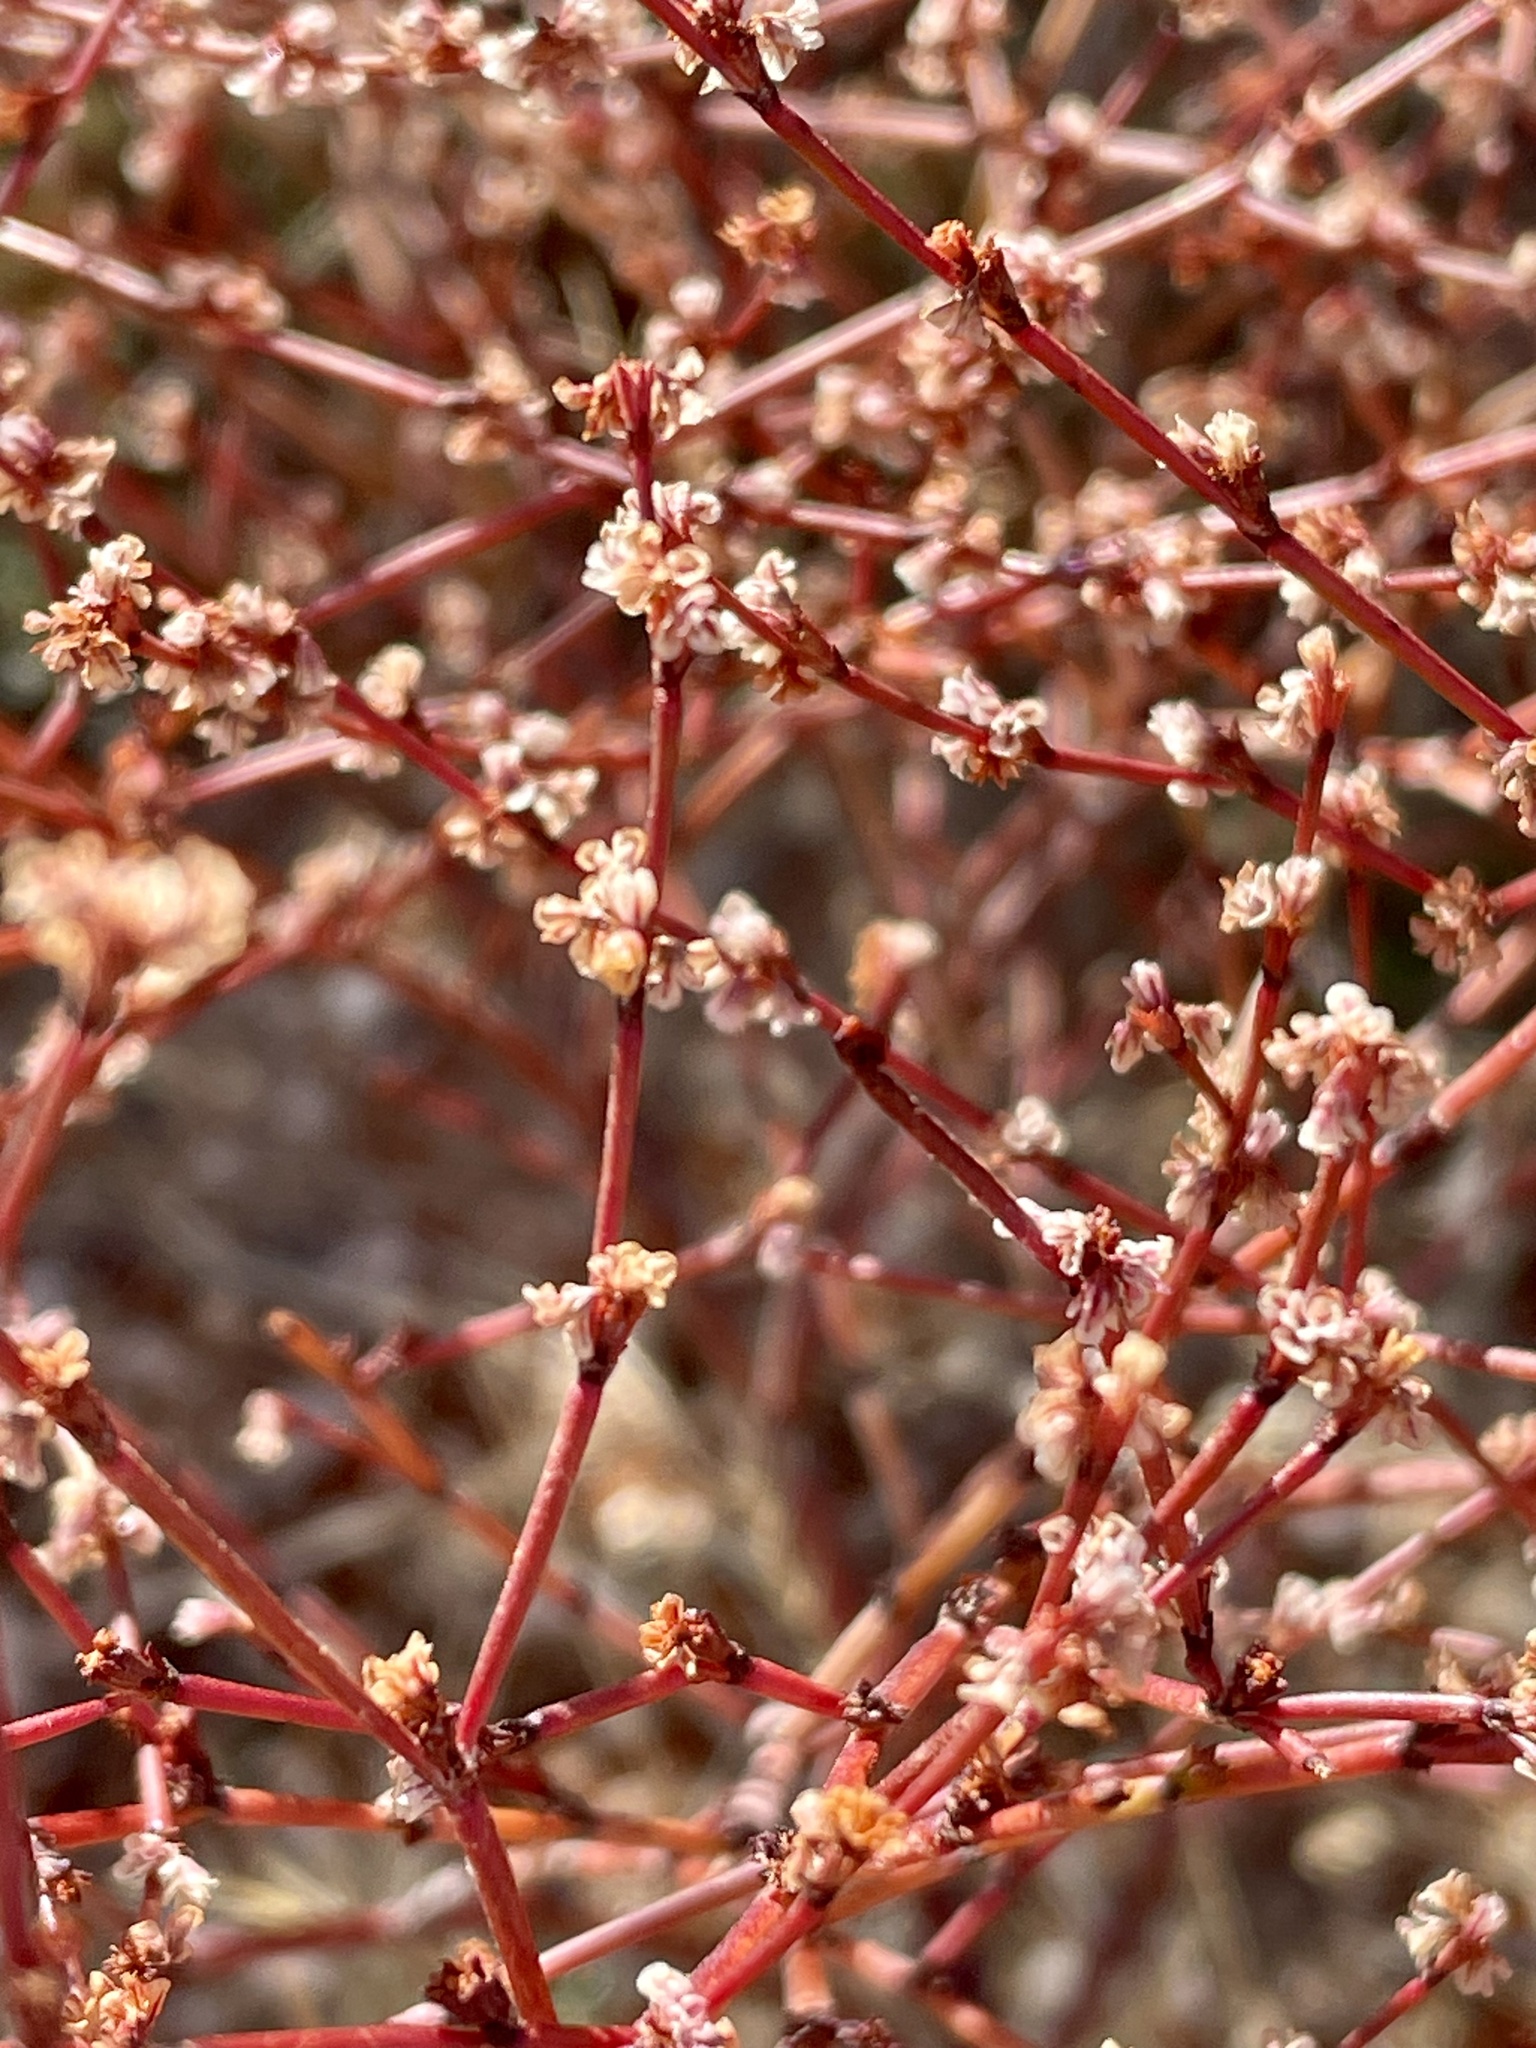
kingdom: Plantae
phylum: Tracheophyta
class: Magnoliopsida
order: Caryophyllales
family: Polygonaceae
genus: Eriogonum
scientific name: Eriogonum gracile
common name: Slender woolly buckwheat
